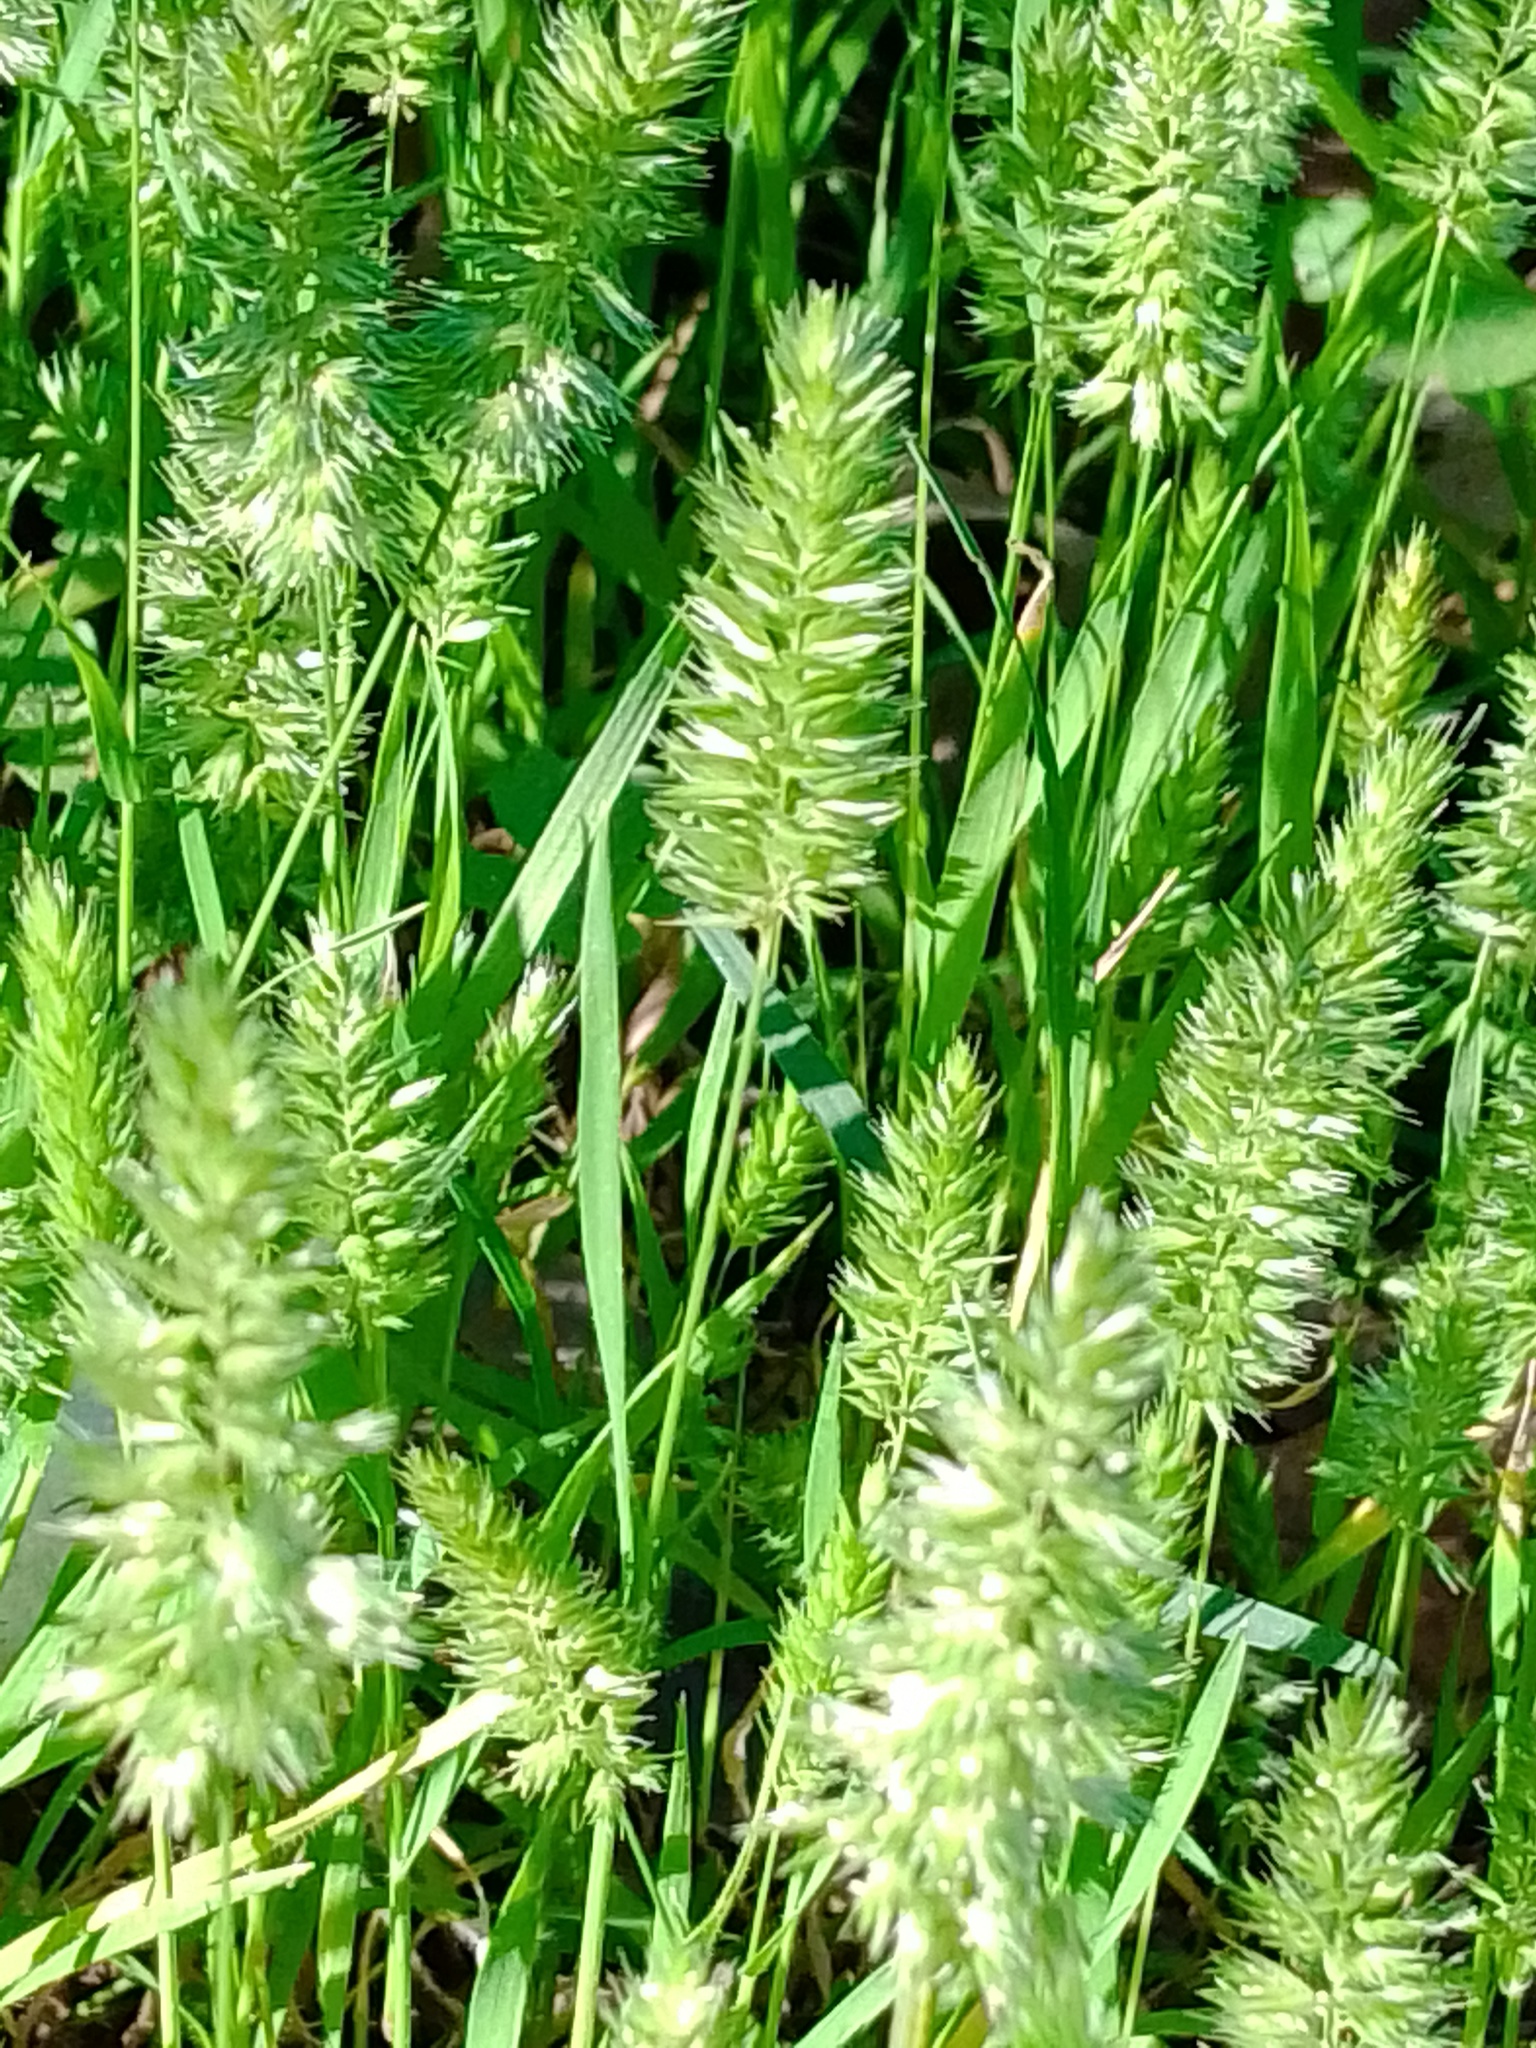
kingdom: Plantae
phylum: Tracheophyta
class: Liliopsida
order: Poales
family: Poaceae
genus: Rostraria
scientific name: Rostraria cristata
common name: Mediterranean hair-grass
